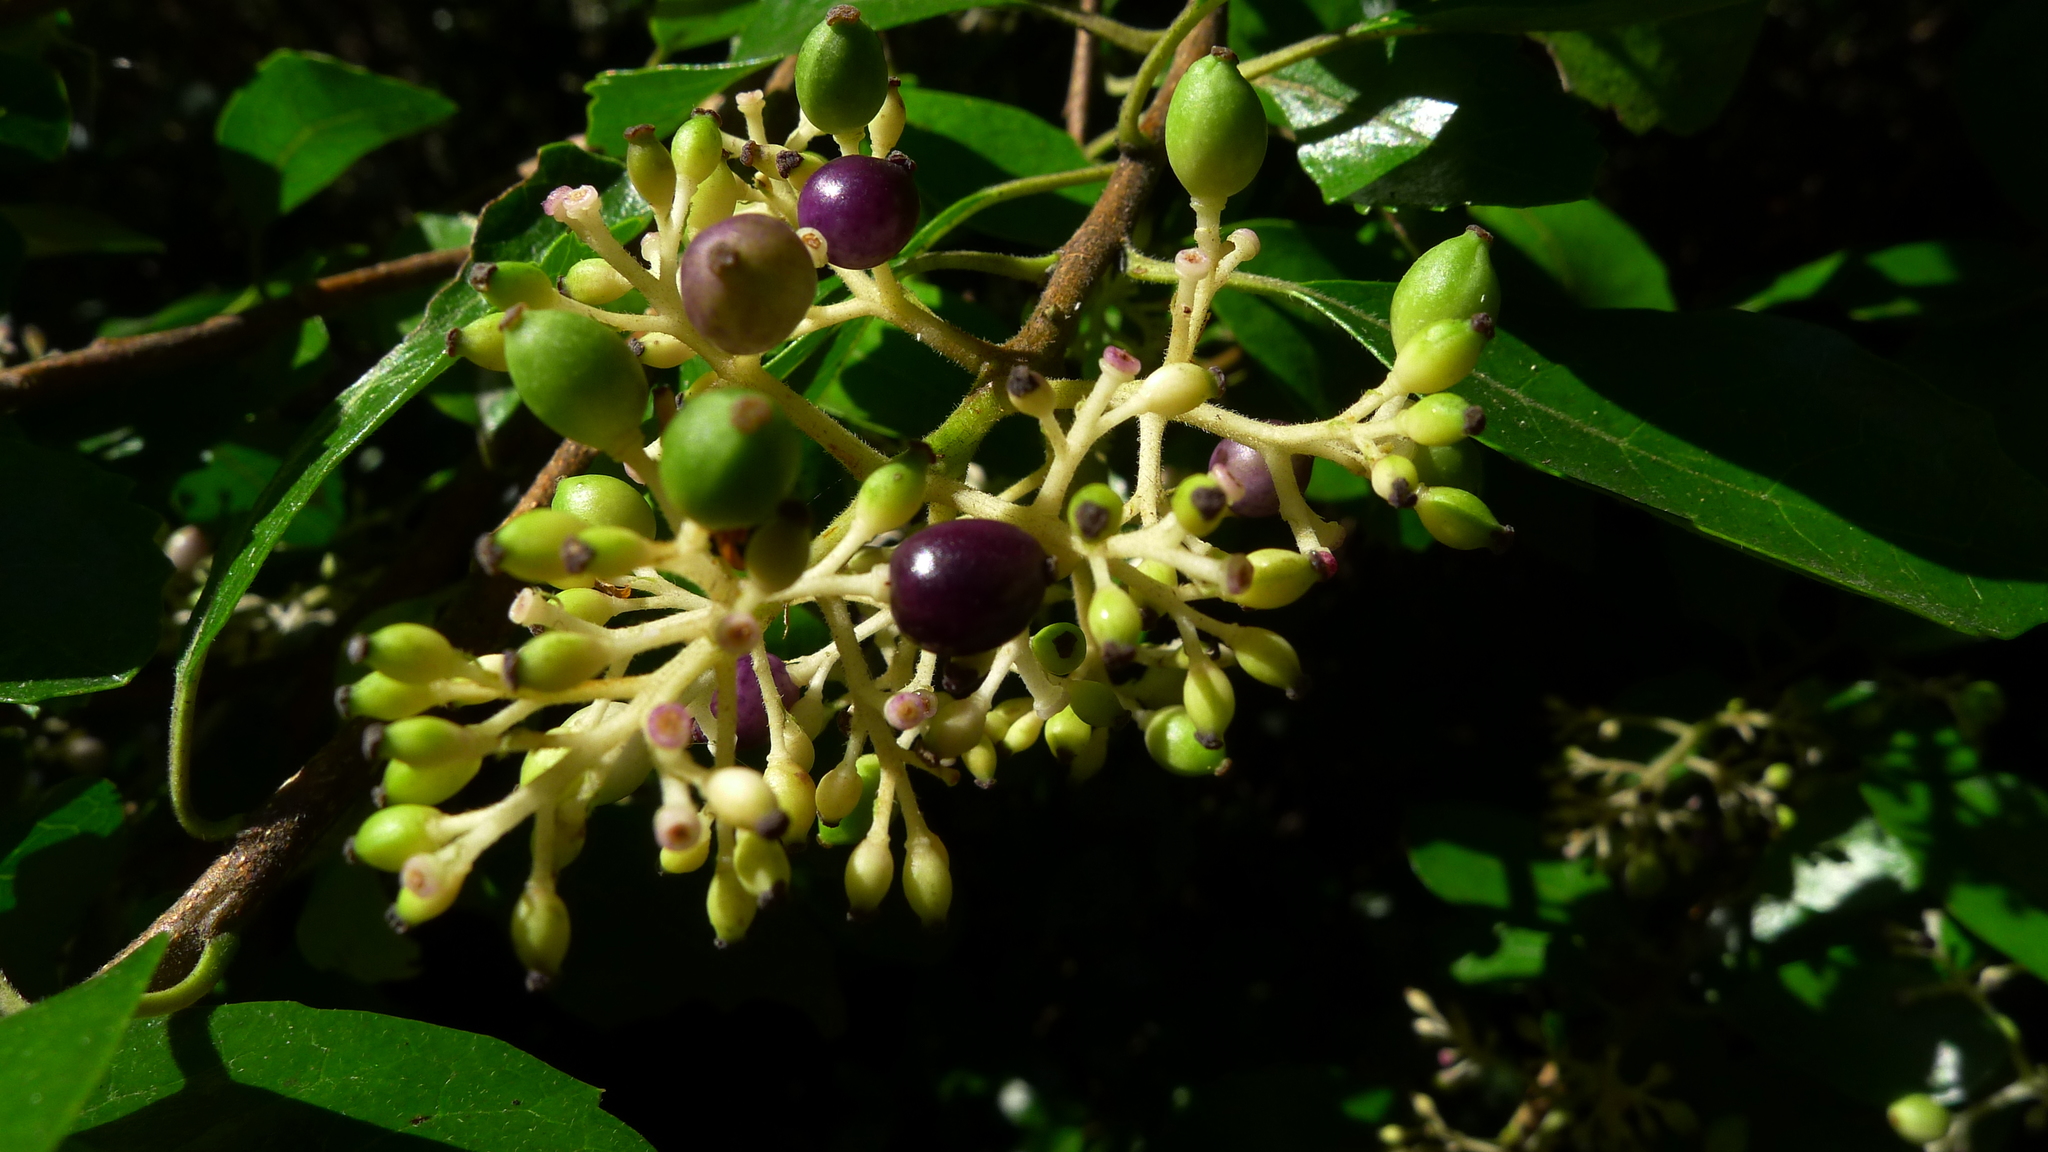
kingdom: Plantae
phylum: Tracheophyta
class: Magnoliopsida
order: Apiales
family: Pennantiaceae
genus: Pennantia
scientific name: Pennantia corymbosa
